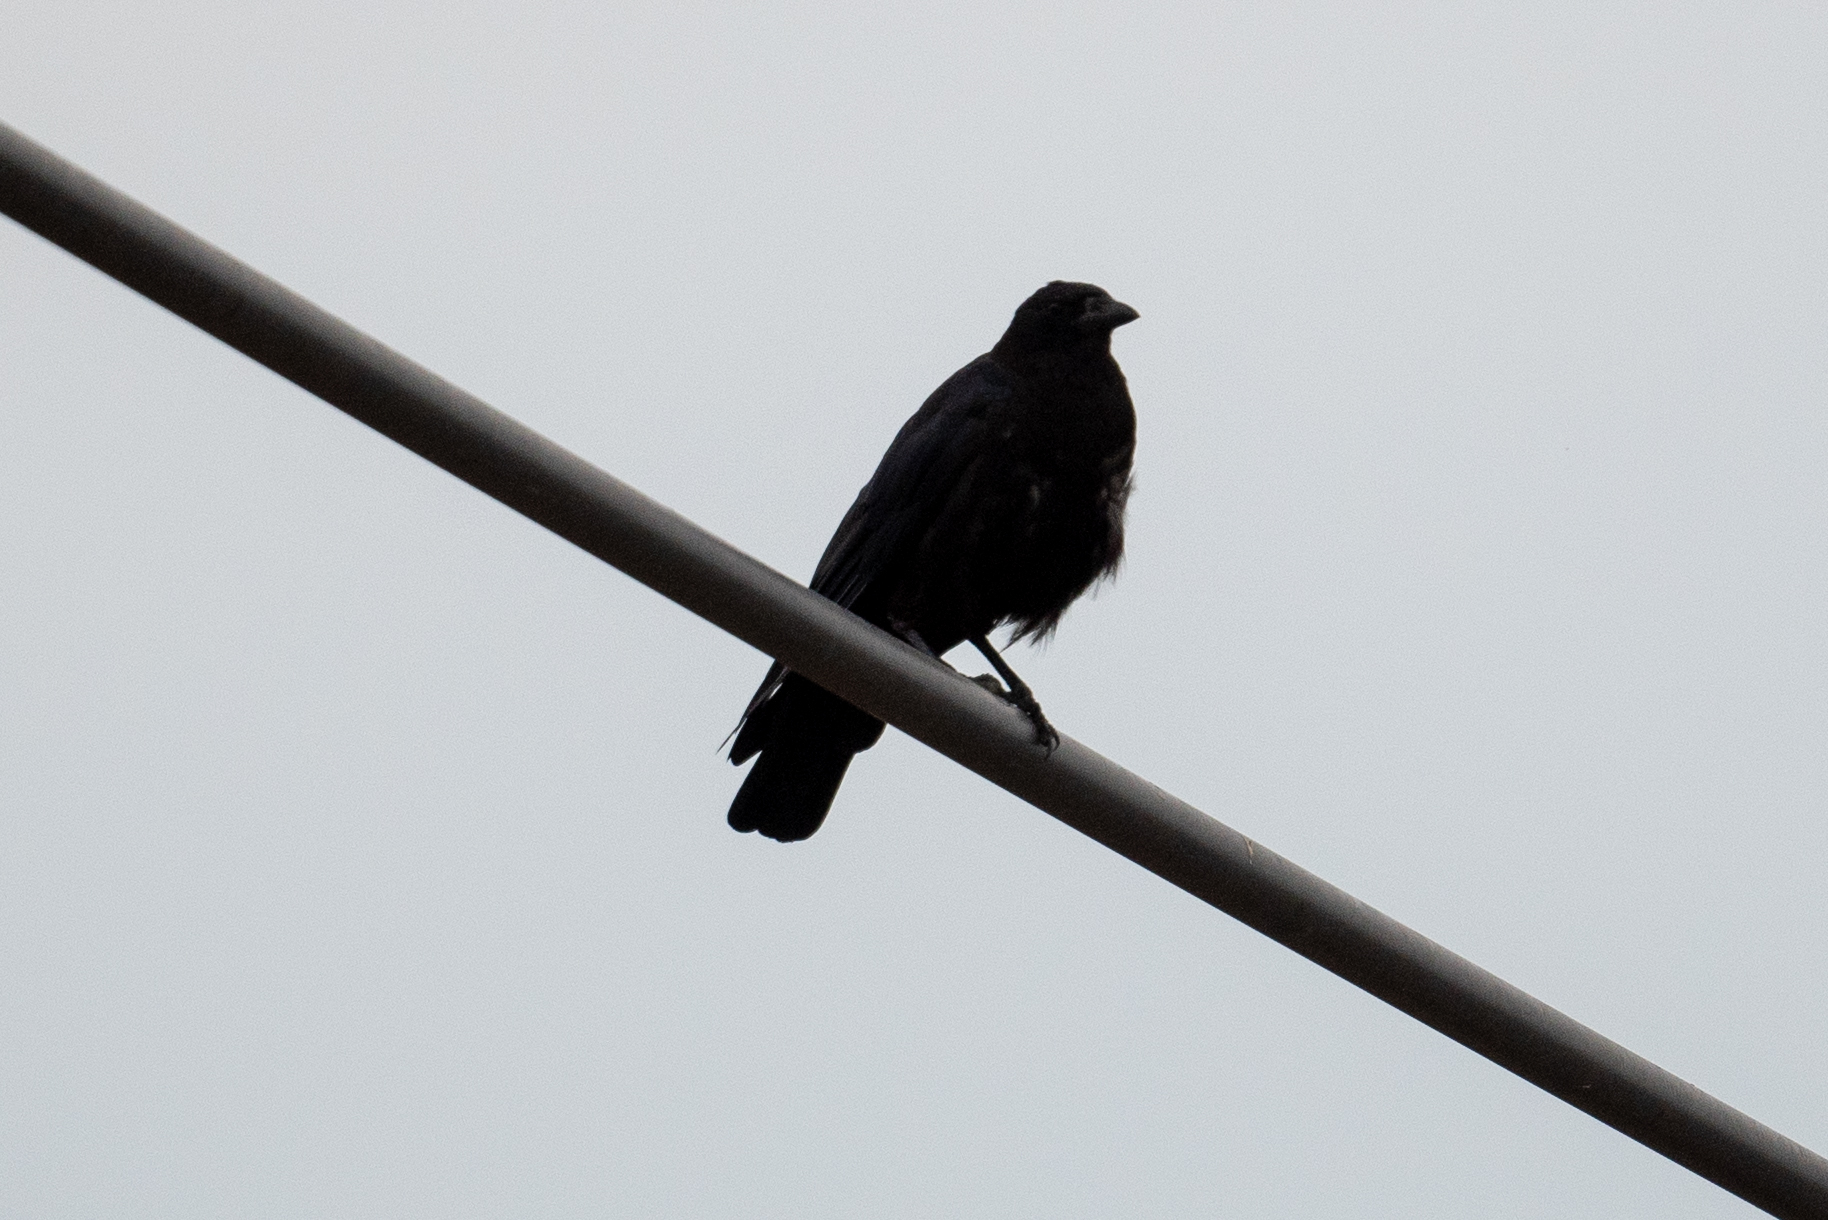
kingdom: Animalia
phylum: Chordata
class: Aves
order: Passeriformes
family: Corvidae
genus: Corvus
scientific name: Corvus brachyrhynchos
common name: American crow
